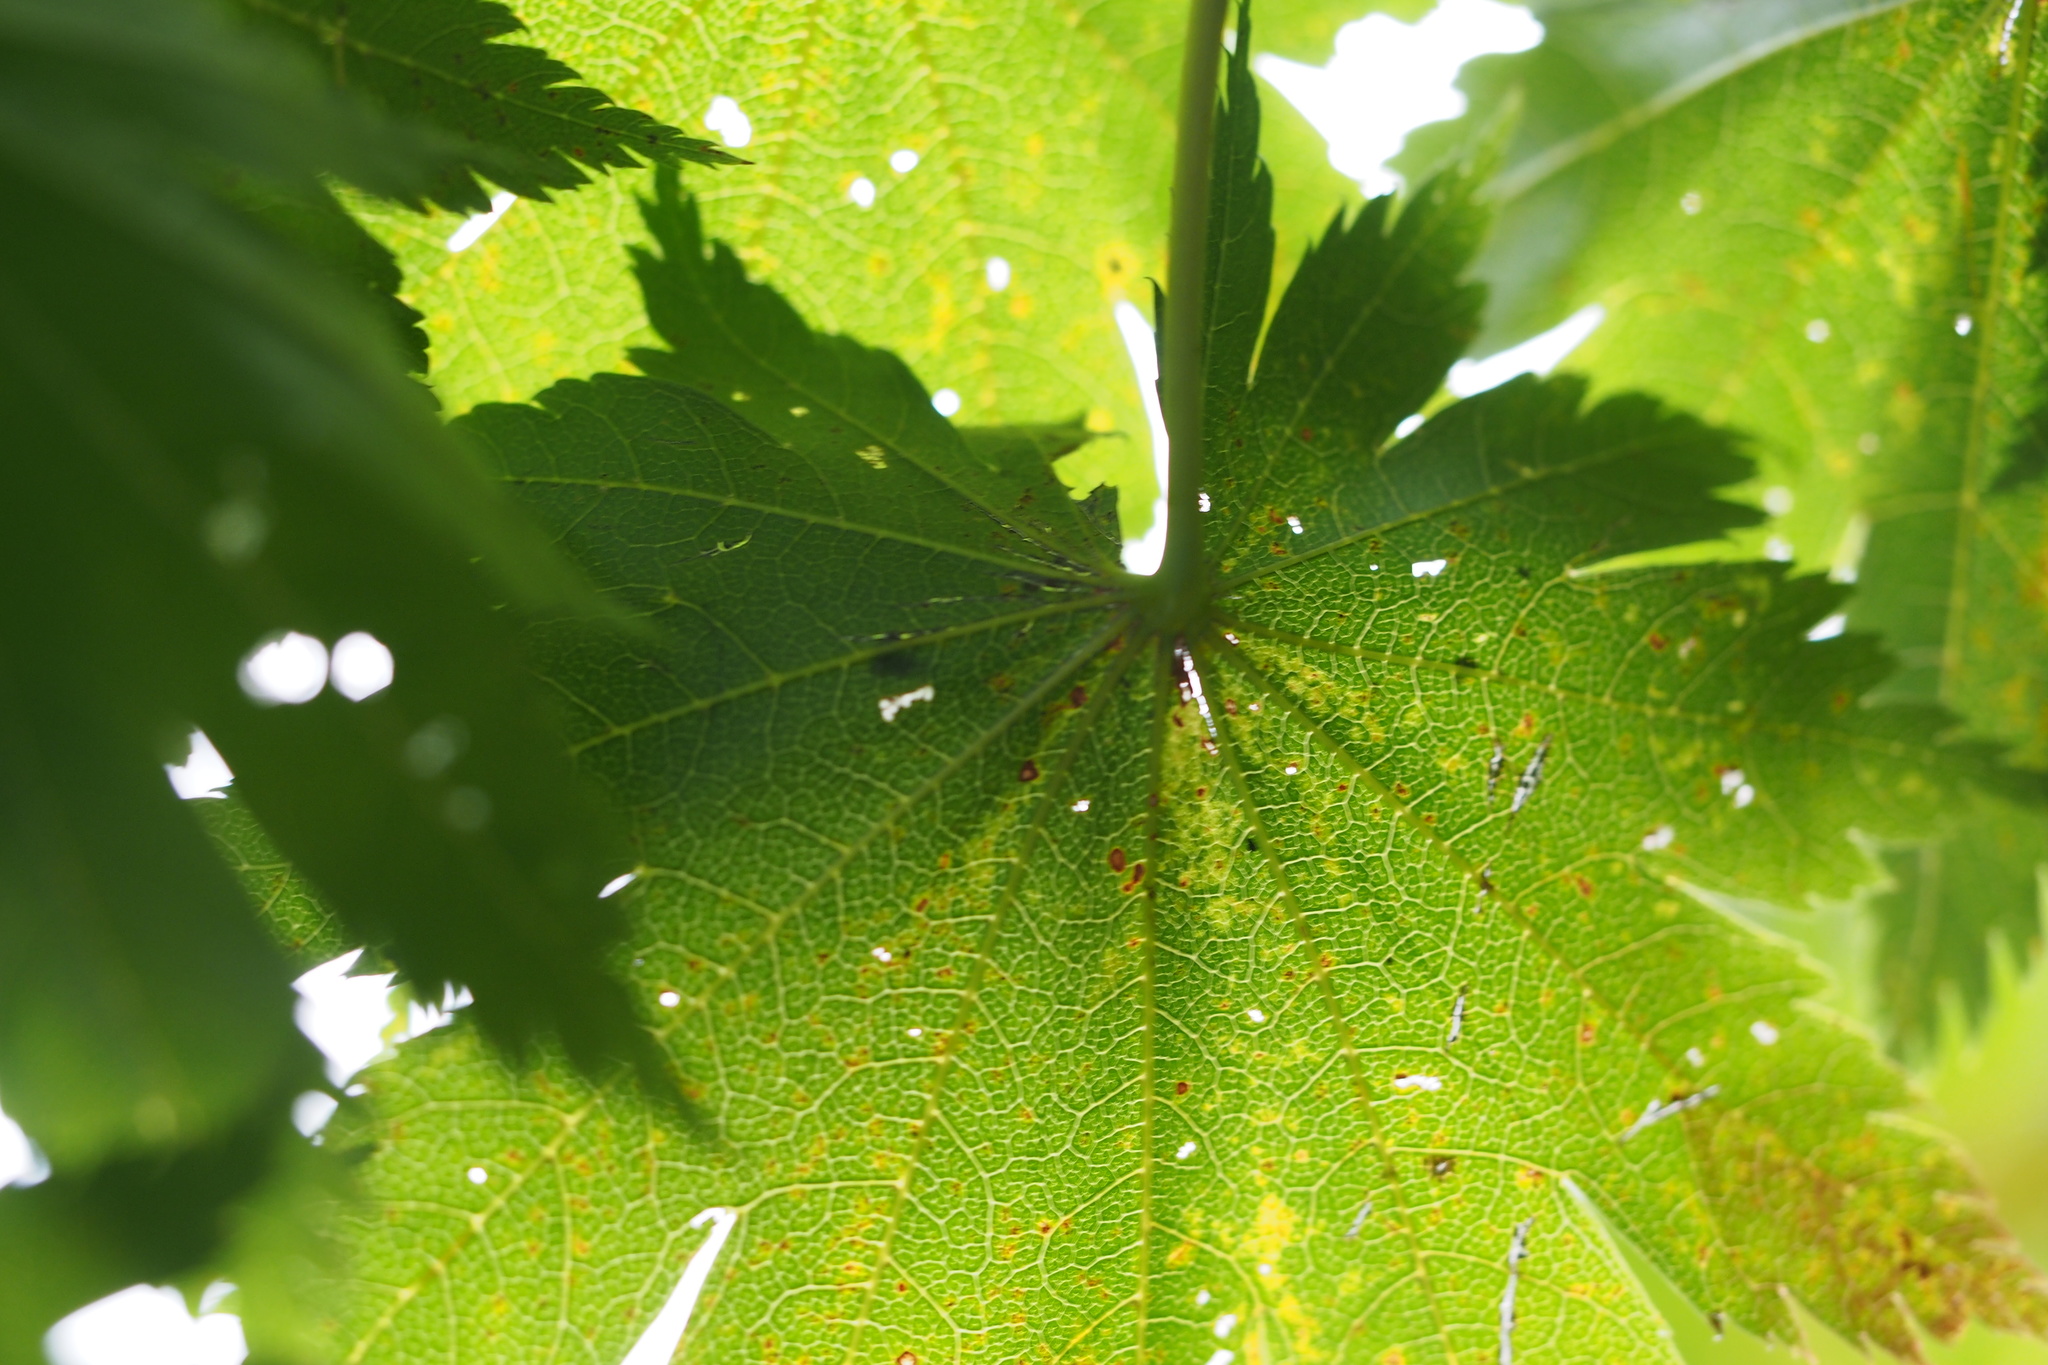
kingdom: Plantae
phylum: Tracheophyta
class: Magnoliopsida
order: Sapindales
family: Sapindaceae
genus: Acer
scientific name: Acer shirasawanum
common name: Full moon maple
